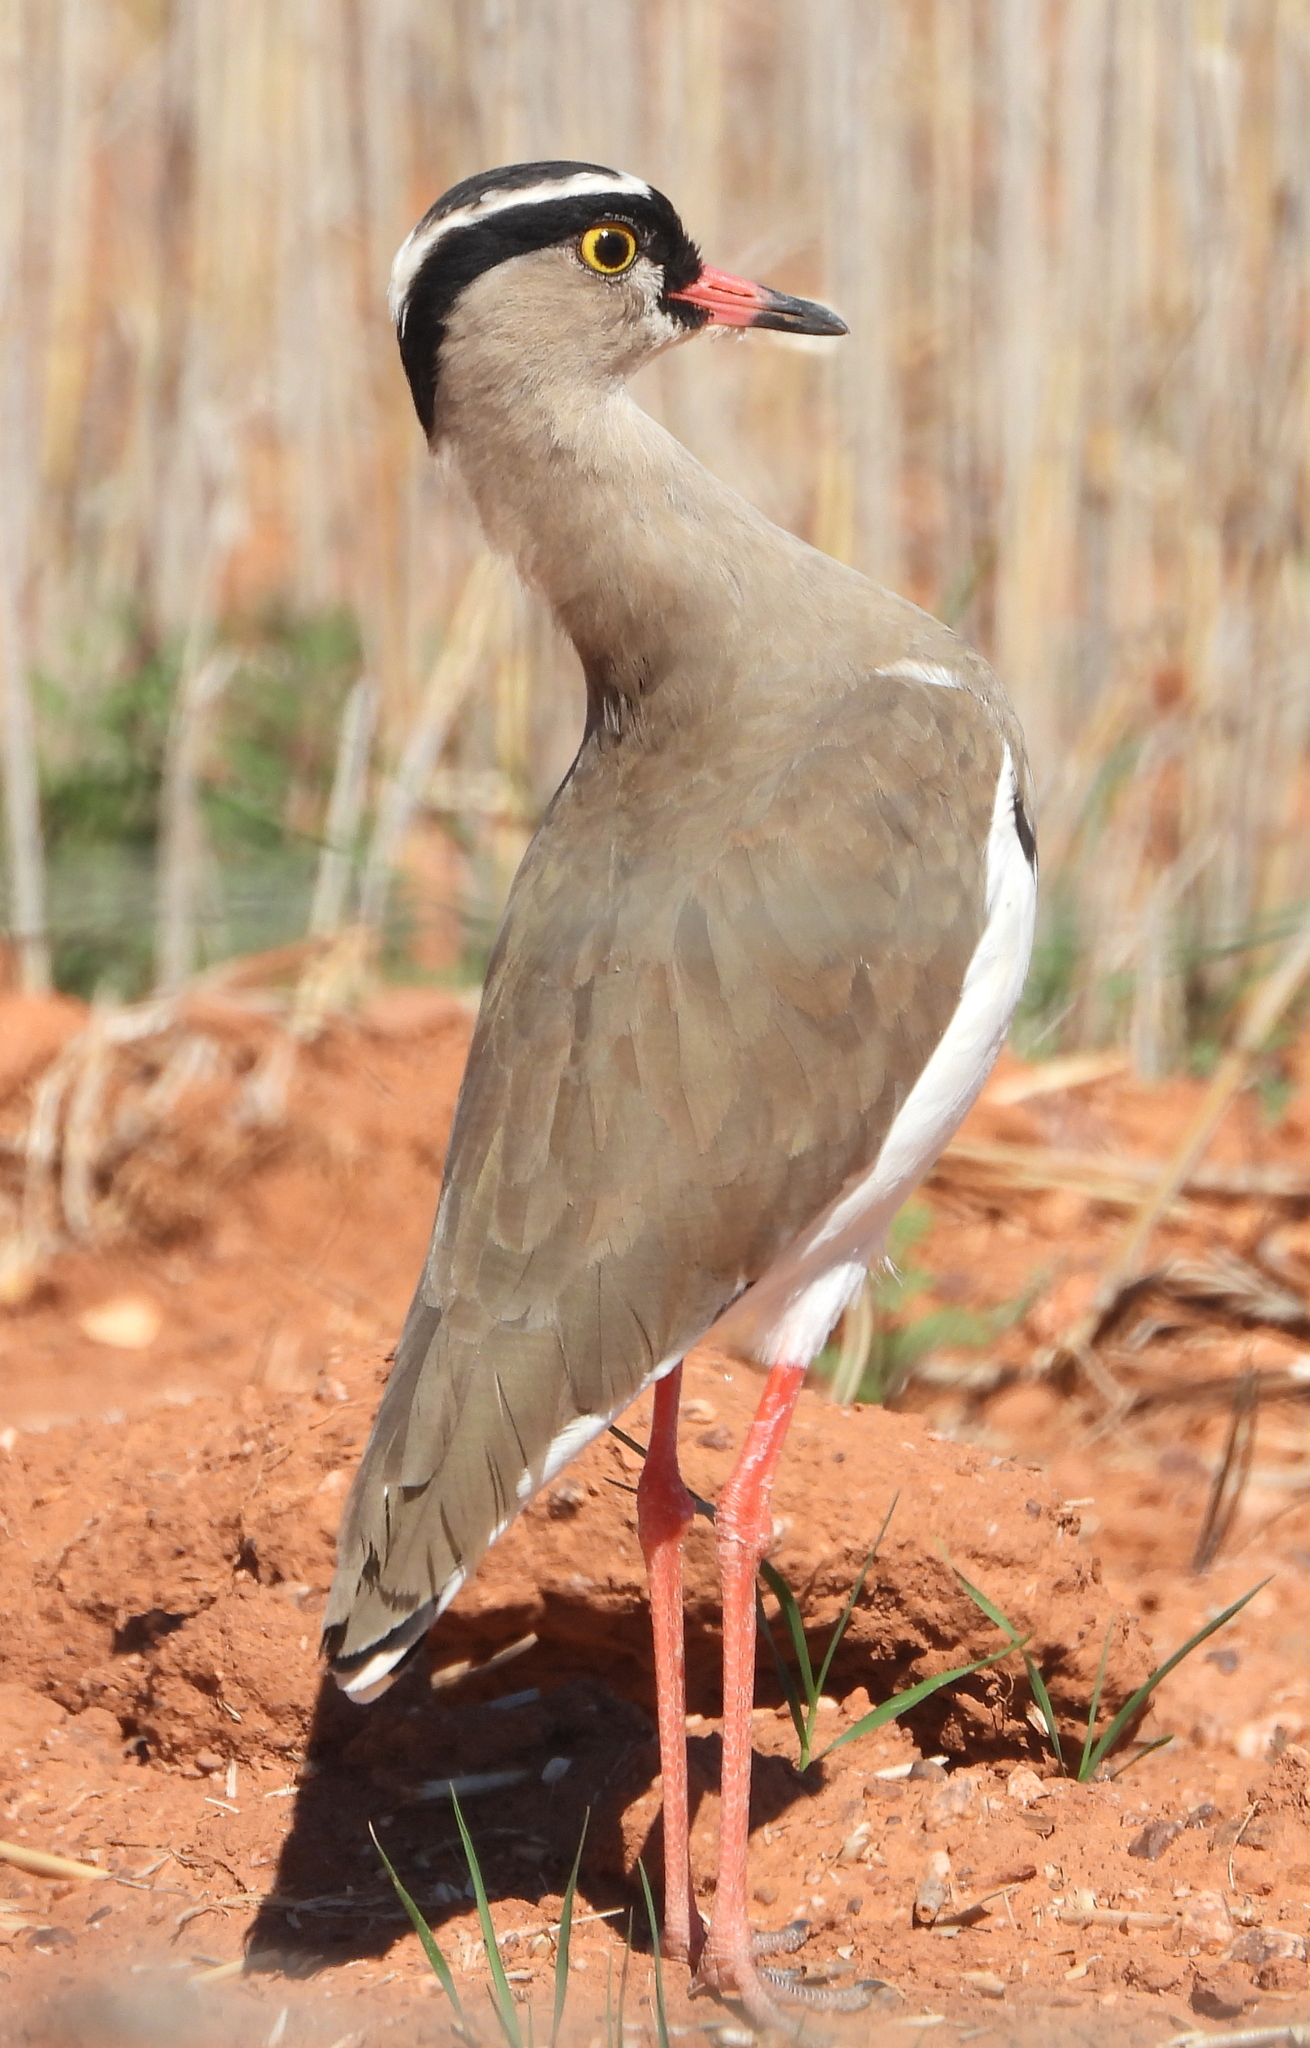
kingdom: Animalia
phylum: Chordata
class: Aves
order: Charadriiformes
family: Charadriidae
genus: Vanellus
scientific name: Vanellus coronatus
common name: Crowned lapwing
